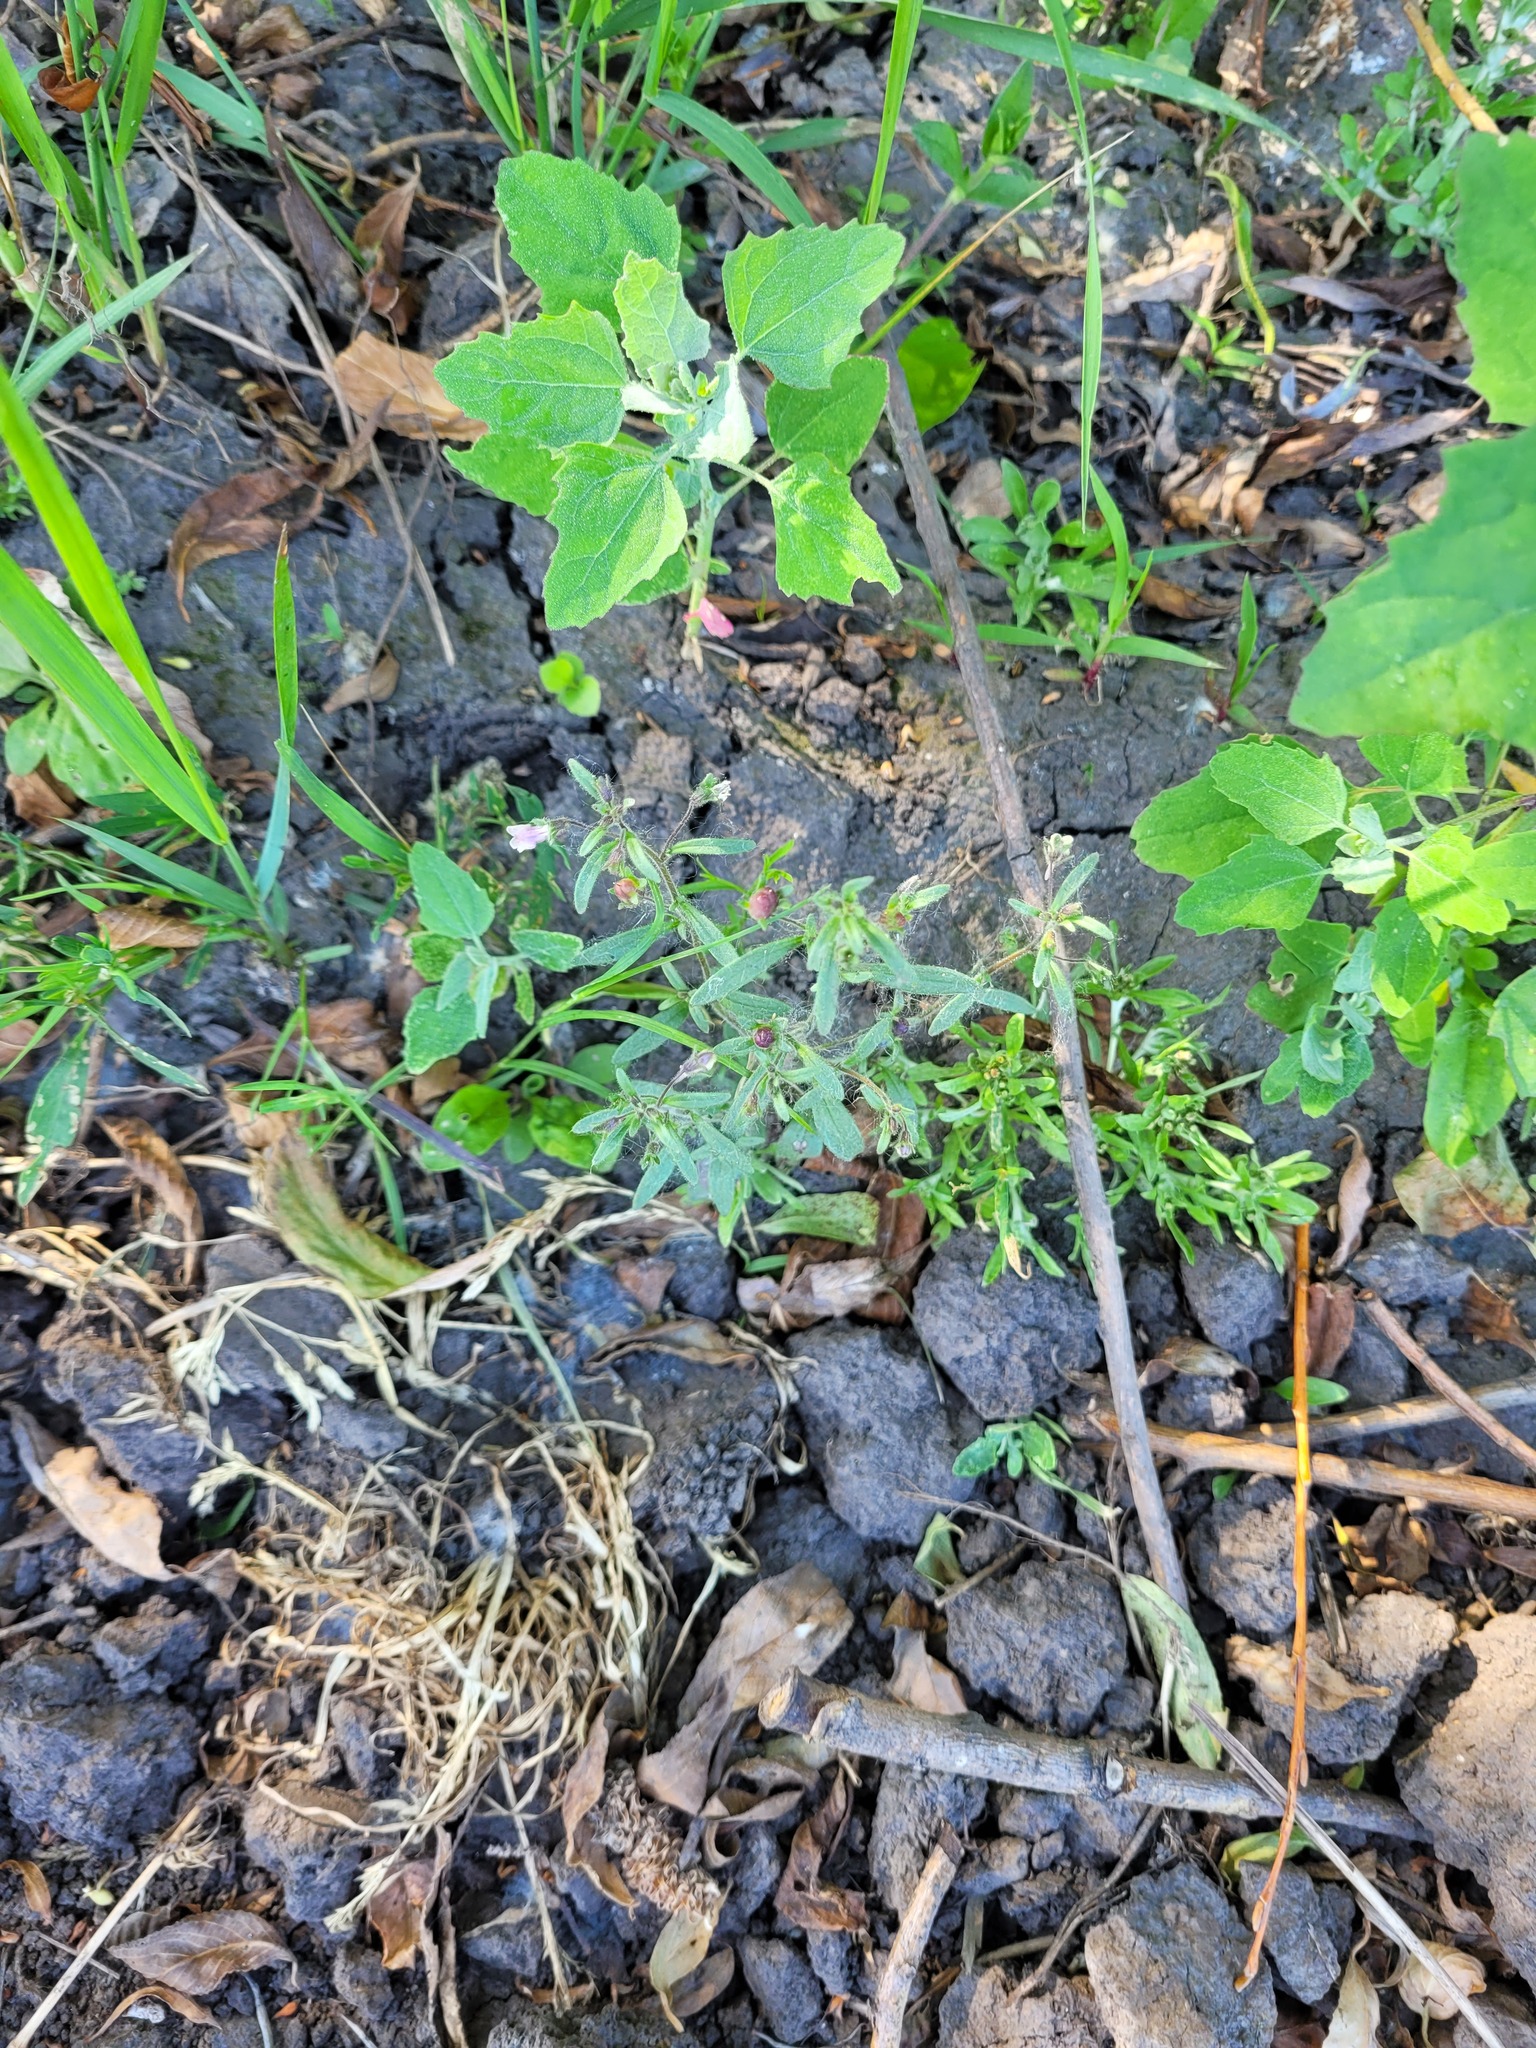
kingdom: Plantae
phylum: Tracheophyta
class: Magnoliopsida
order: Lamiales
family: Plantaginaceae
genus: Chaenorhinum
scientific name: Chaenorhinum minus
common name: Dwarf snapdragon
